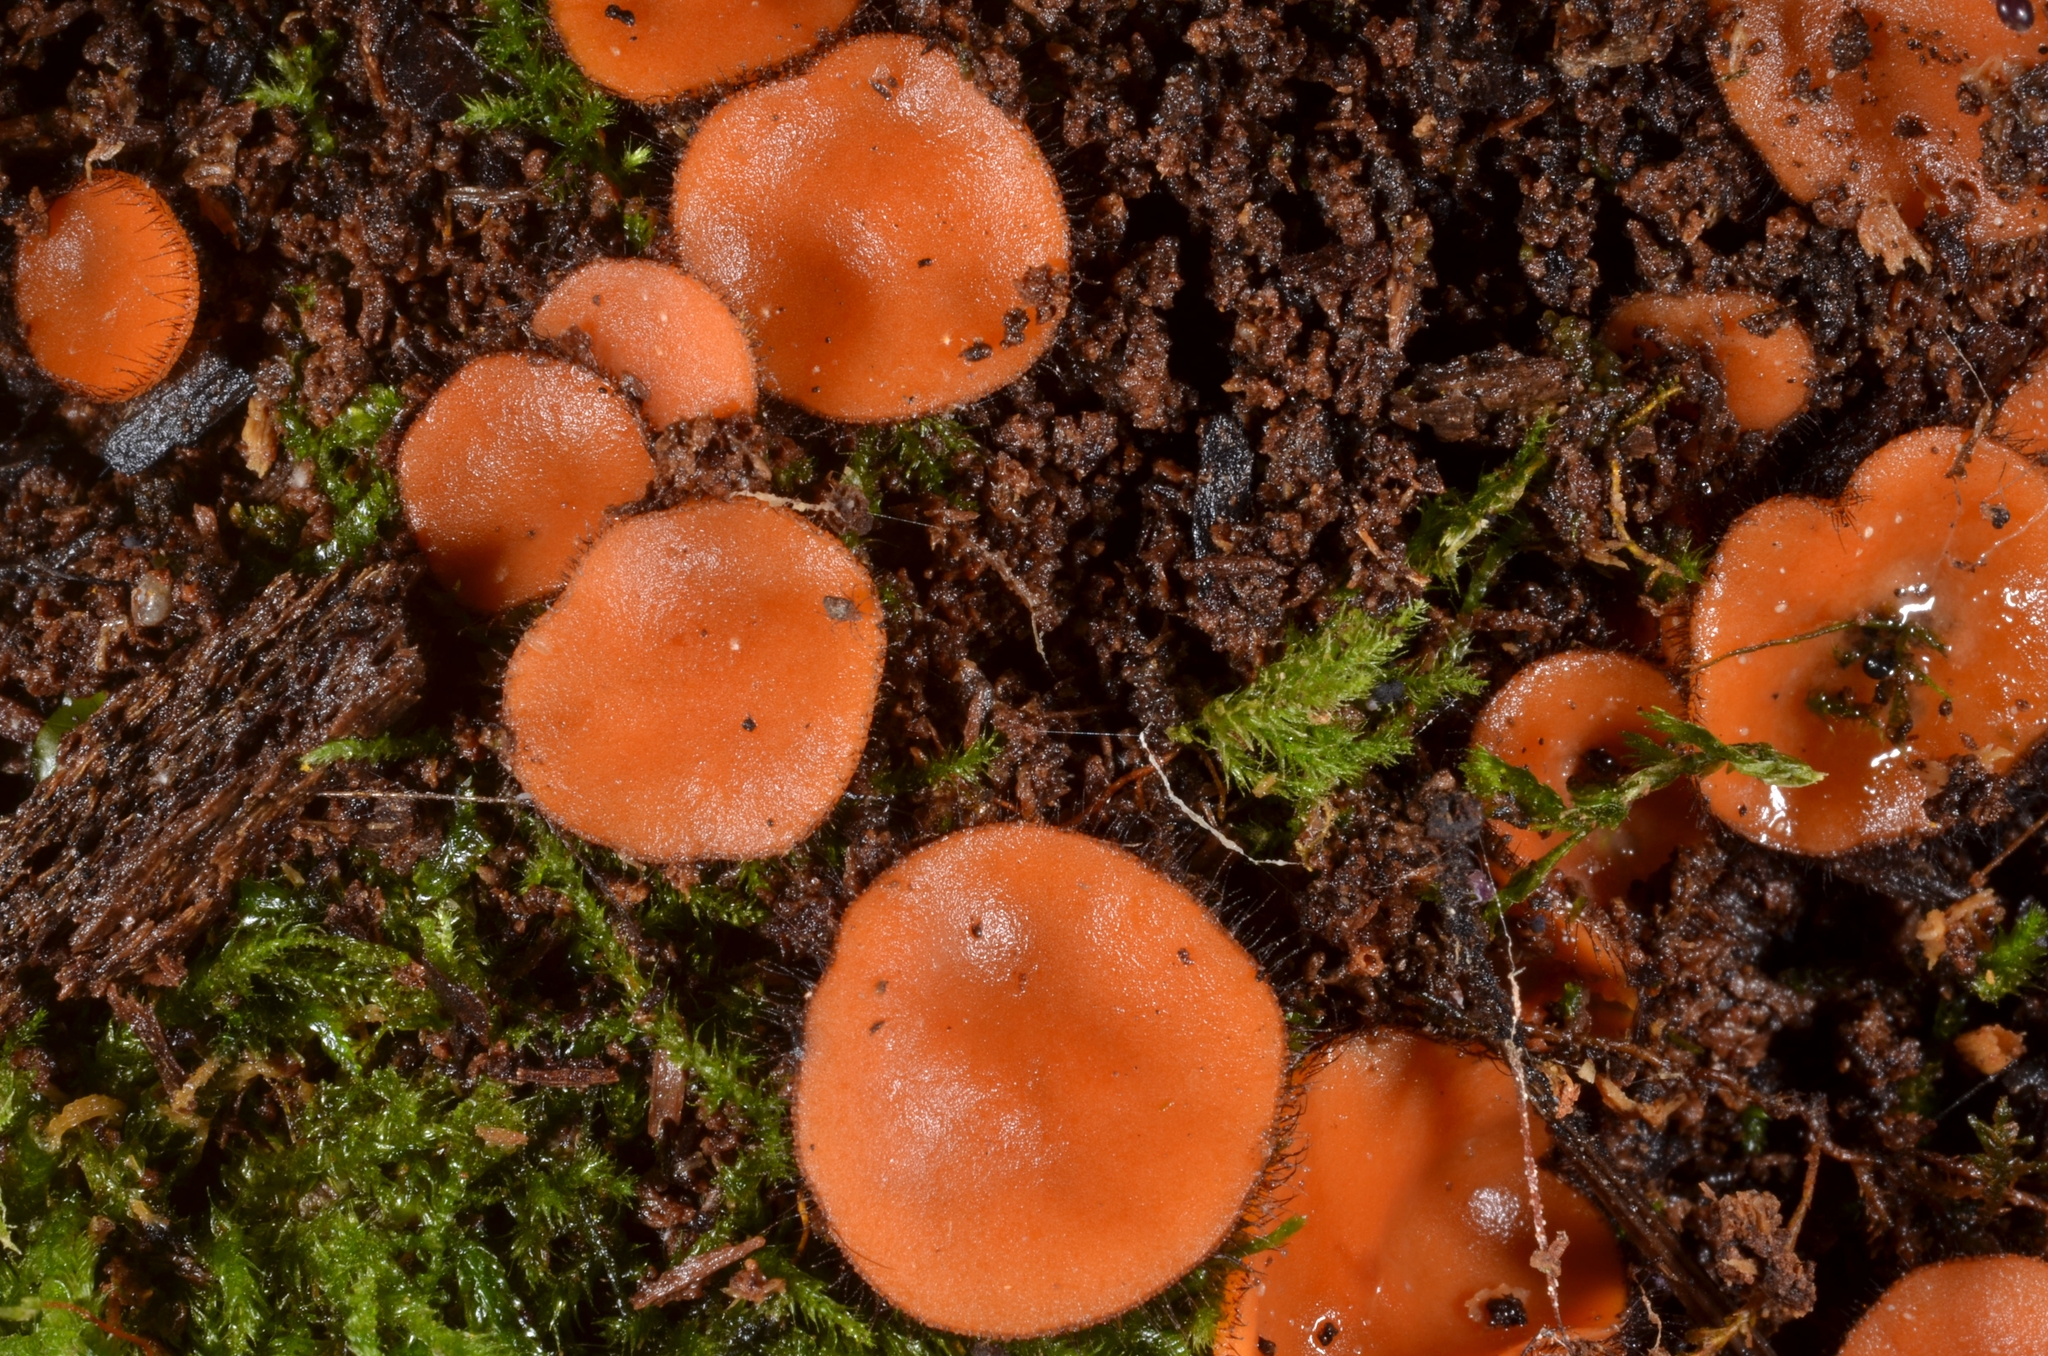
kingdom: Fungi
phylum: Ascomycota
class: Pezizomycetes
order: Pezizales
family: Pyronemataceae
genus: Scutellinia
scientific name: Scutellinia
